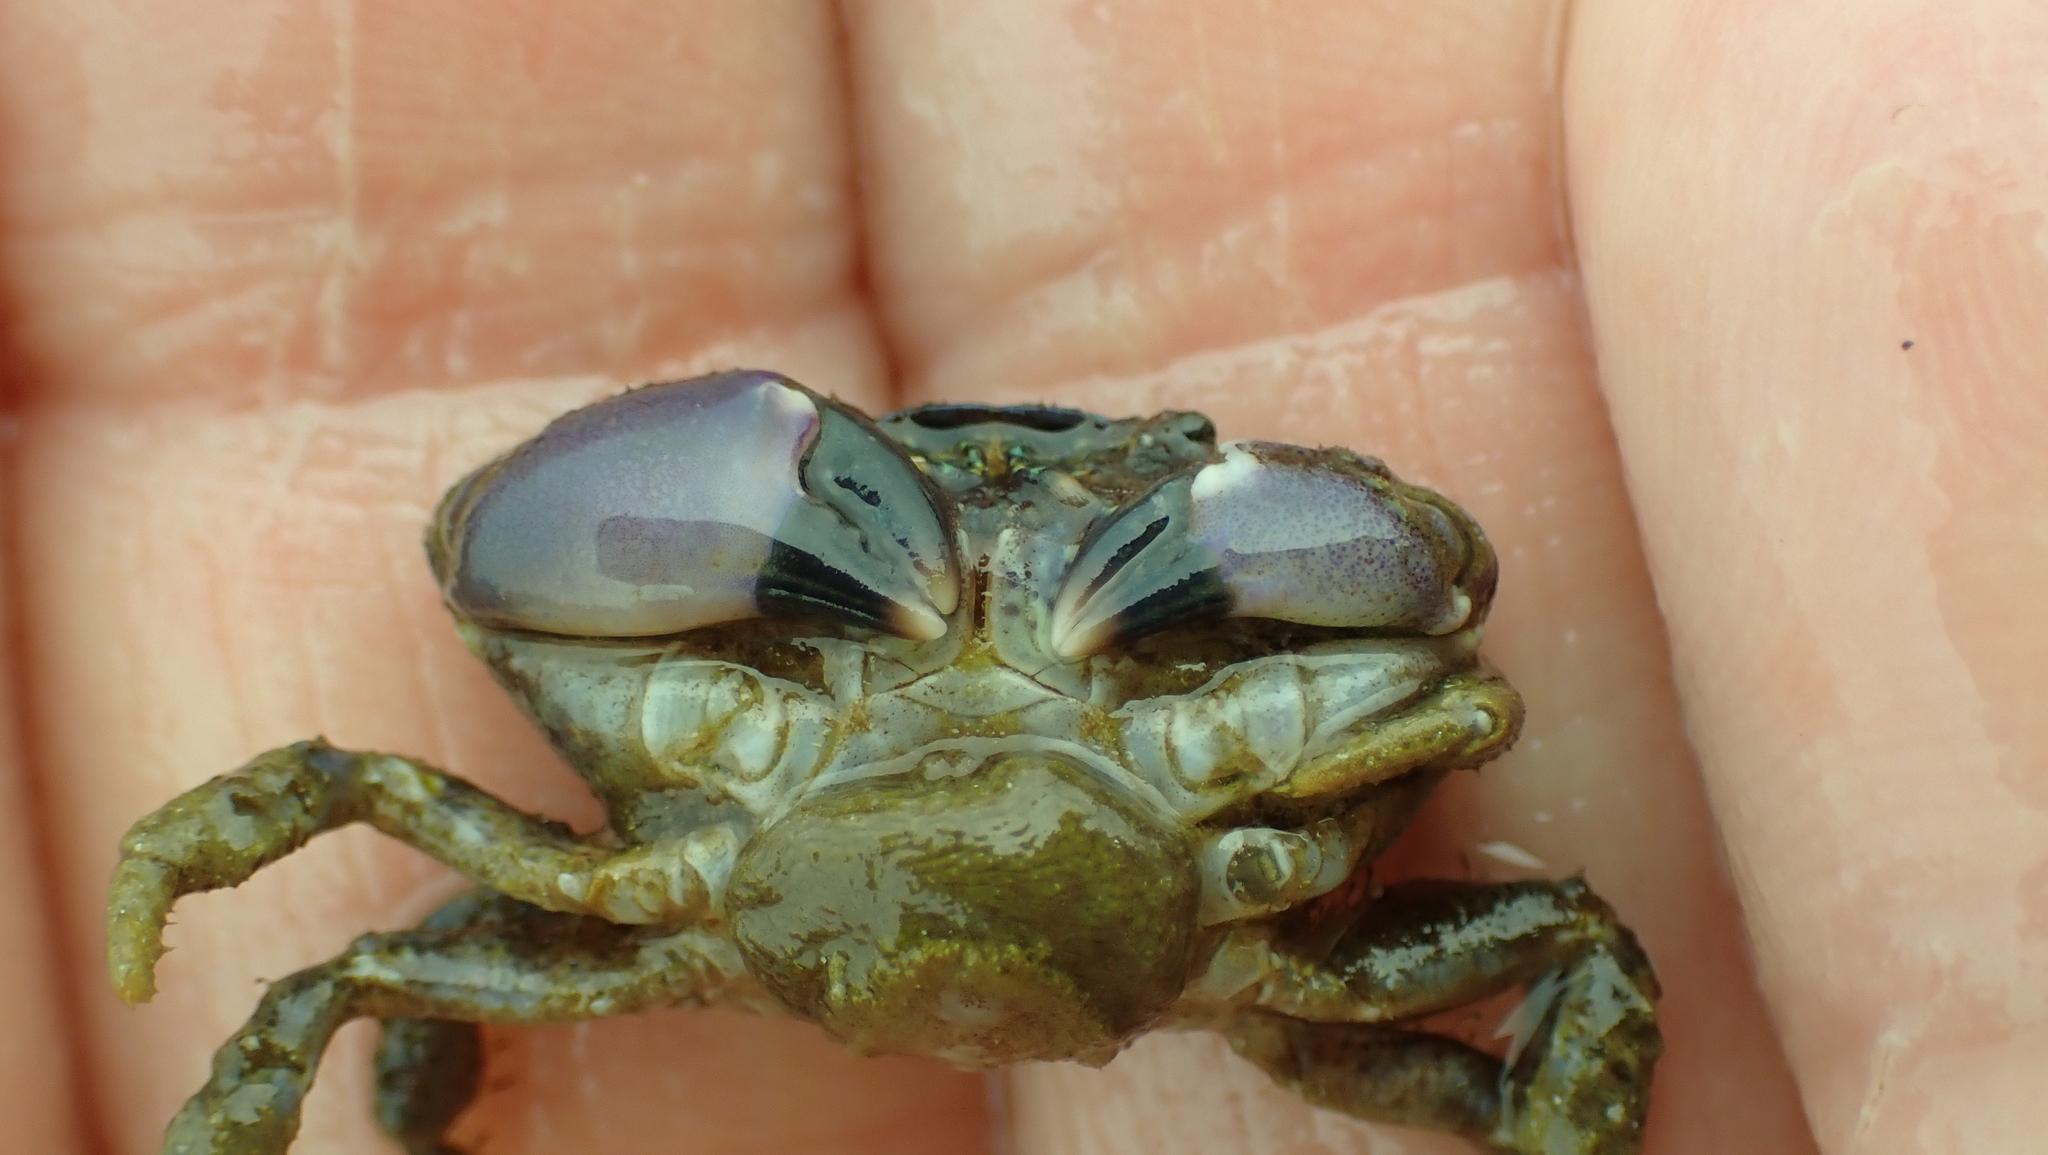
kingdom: Animalia
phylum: Arthropoda
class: Malacostraca
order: Decapoda
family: Panopeidae
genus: Lophopanopeus
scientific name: Lophopanopeus bellus
